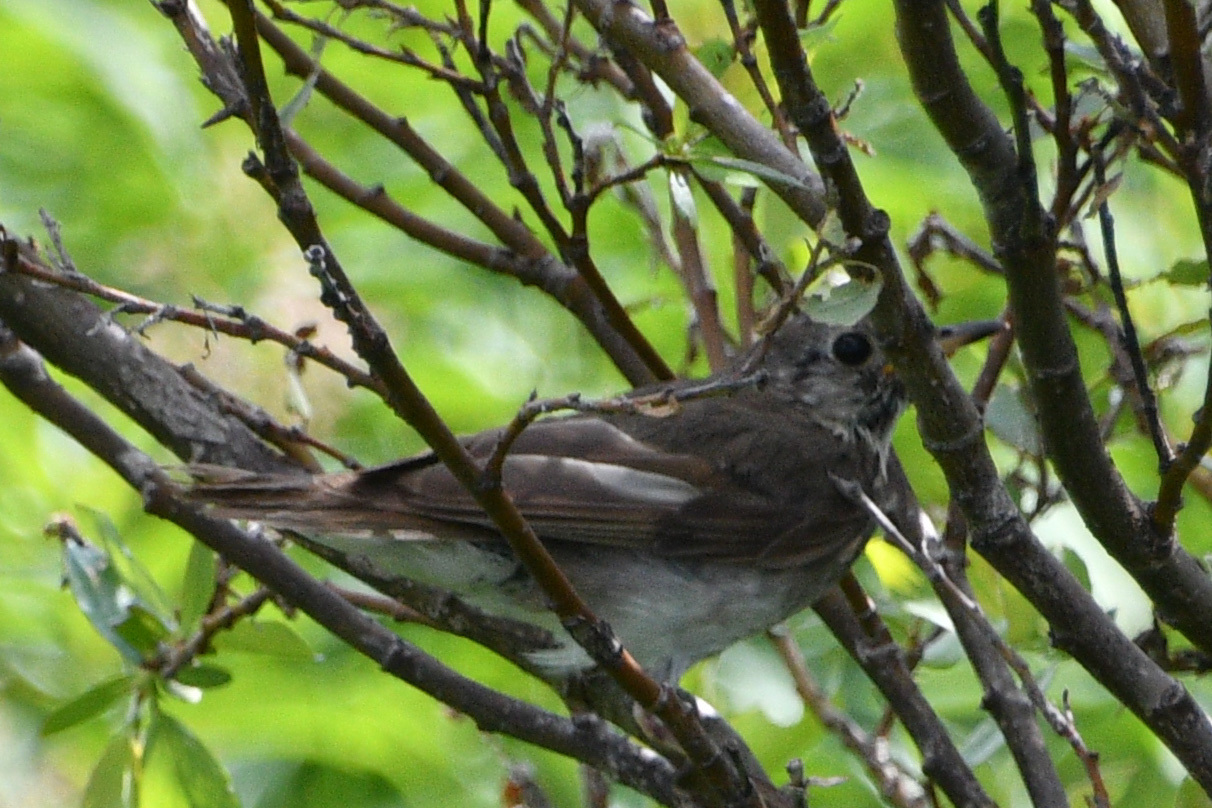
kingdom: Animalia
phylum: Chordata
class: Aves
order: Passeriformes
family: Turdidae
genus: Catharus
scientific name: Catharus minimus
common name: Grey-cheeked thrush
